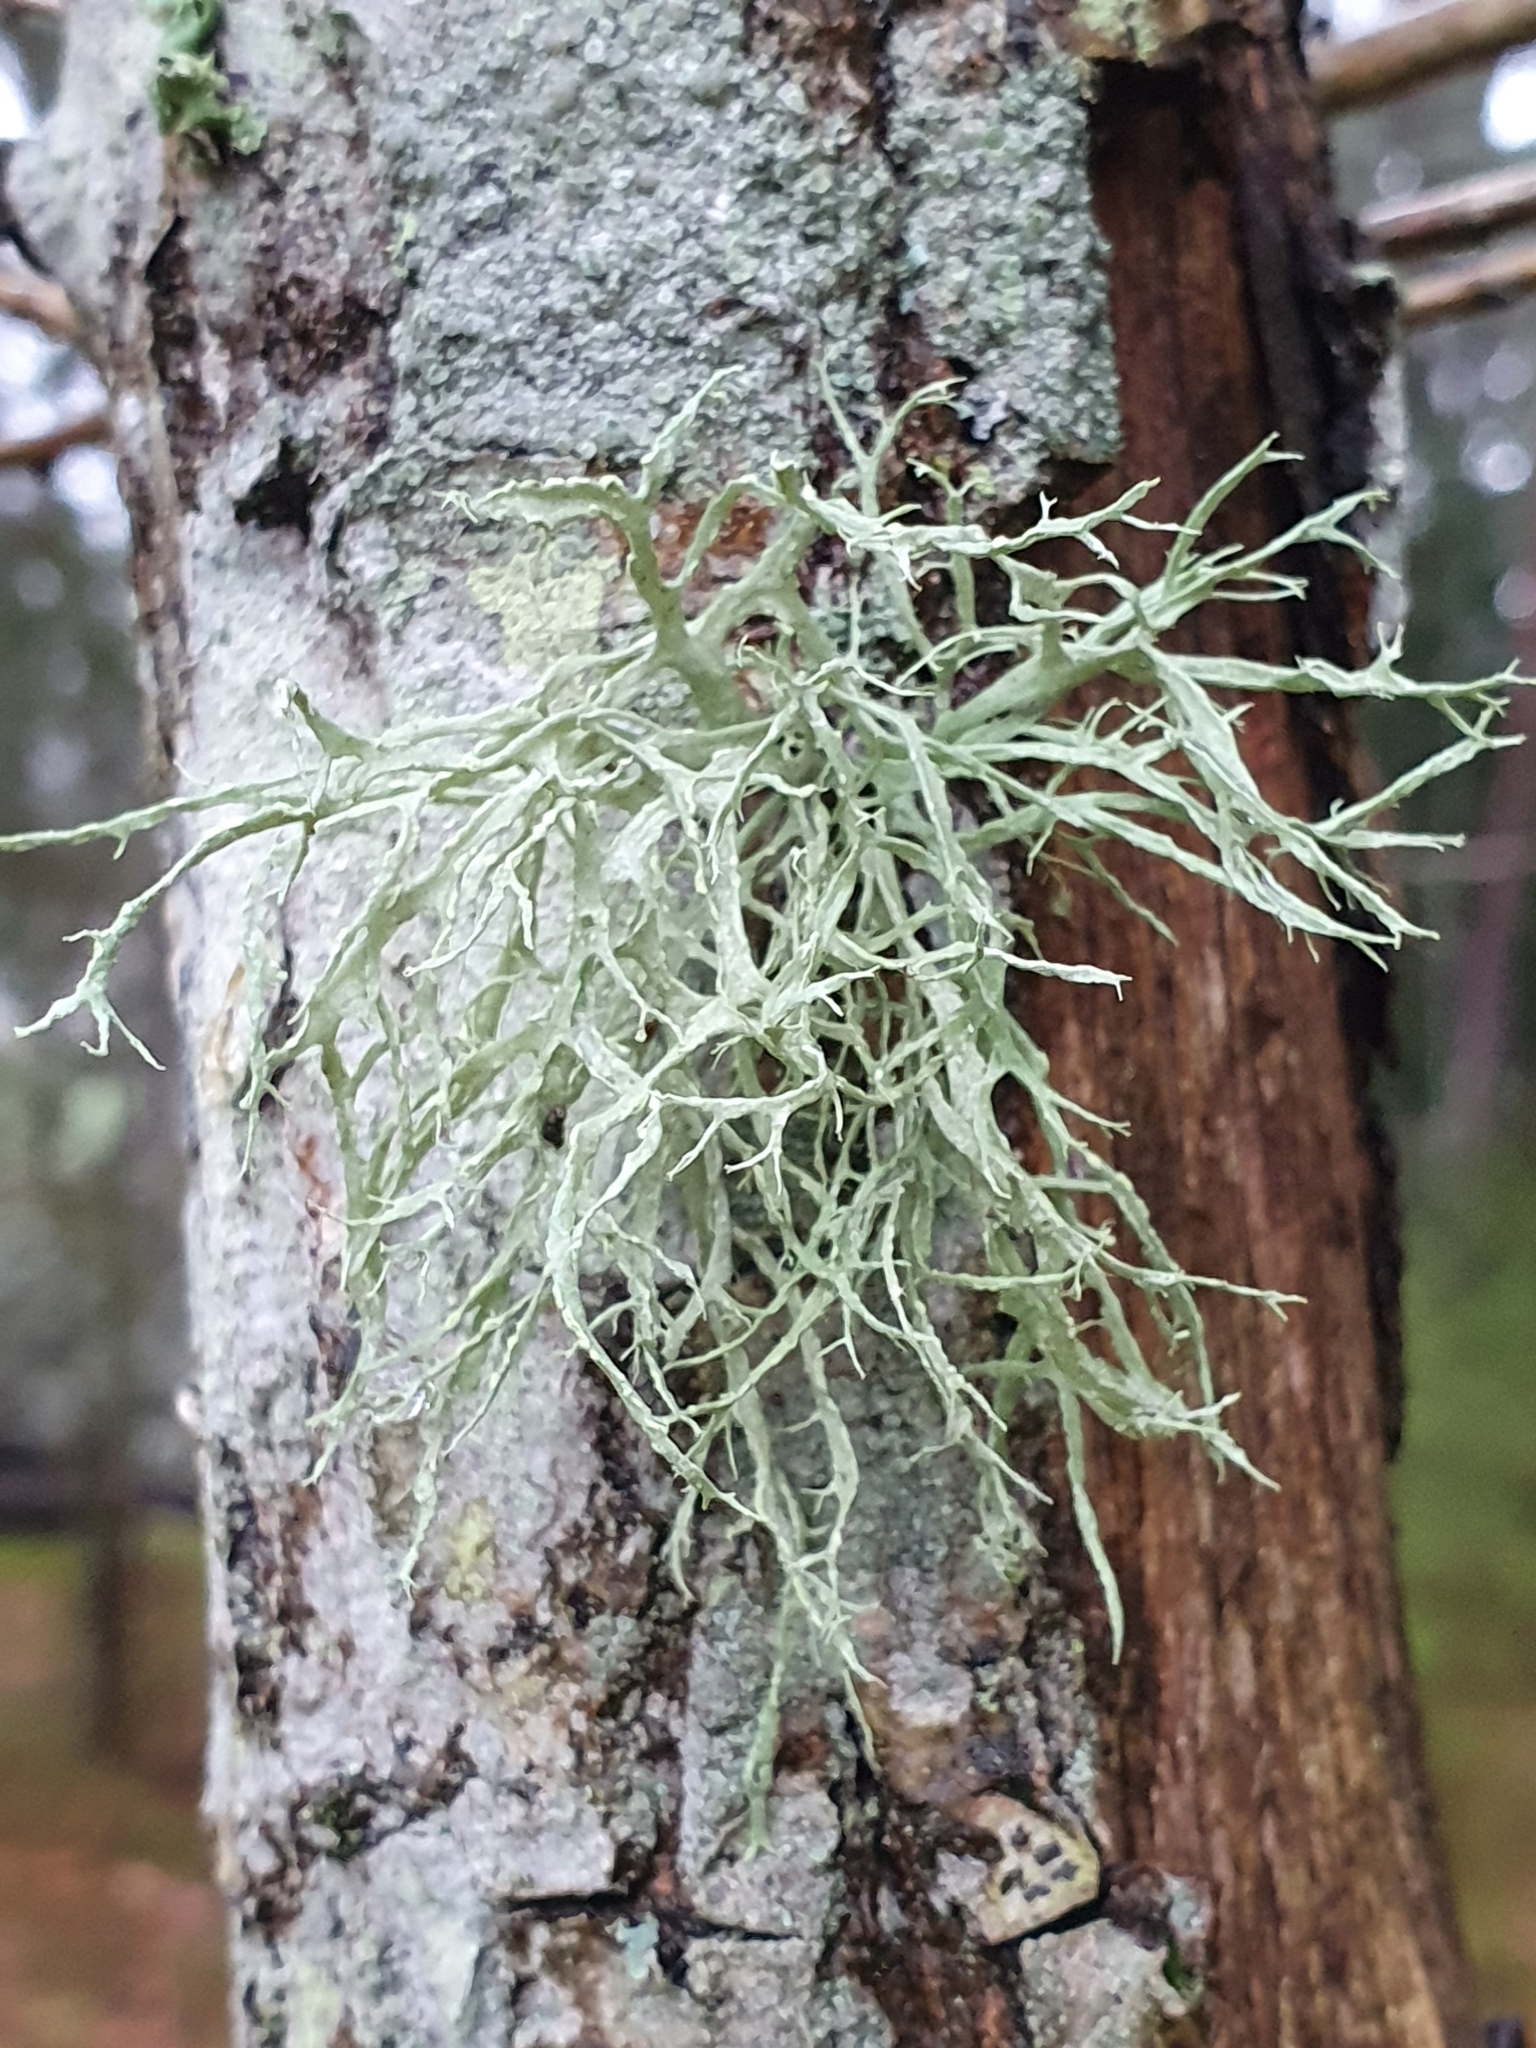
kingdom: Fungi
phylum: Ascomycota
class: Lecanoromycetes
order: Lecanorales
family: Ramalinaceae
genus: Ramalina
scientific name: Ramalina farinacea
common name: Farinose cartilage lichen
